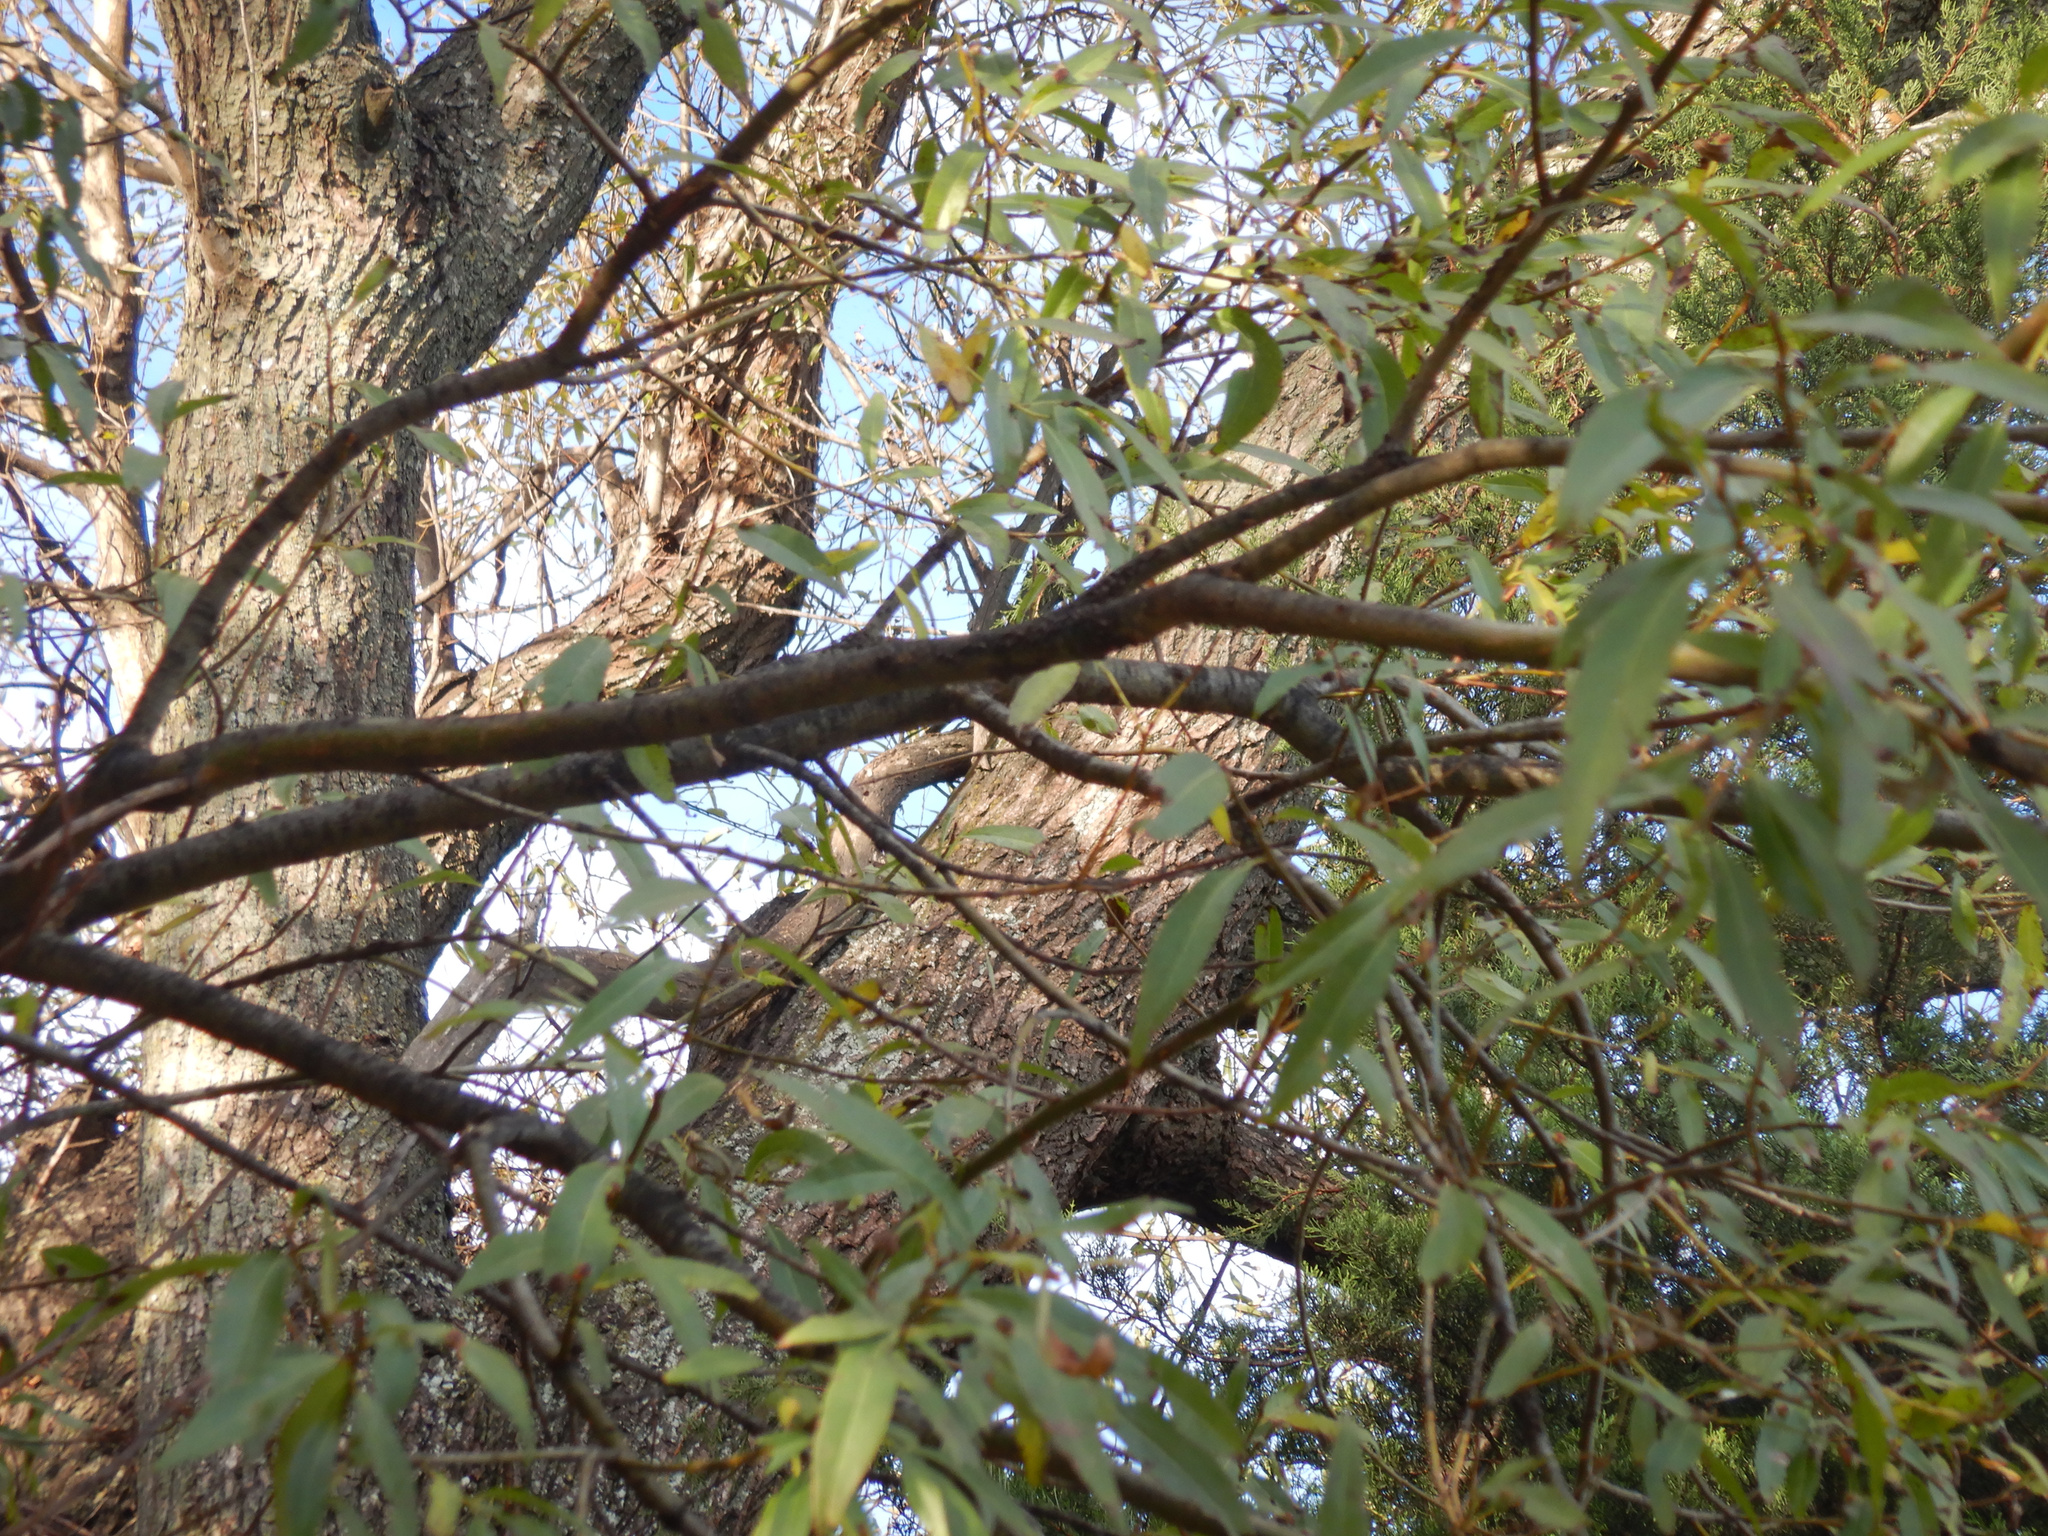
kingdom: Animalia
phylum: Arthropoda
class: Insecta
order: Hemiptera
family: Aphididae
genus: Tuberolachnus
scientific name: Tuberolachnus salignus
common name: Giant willow aphid
